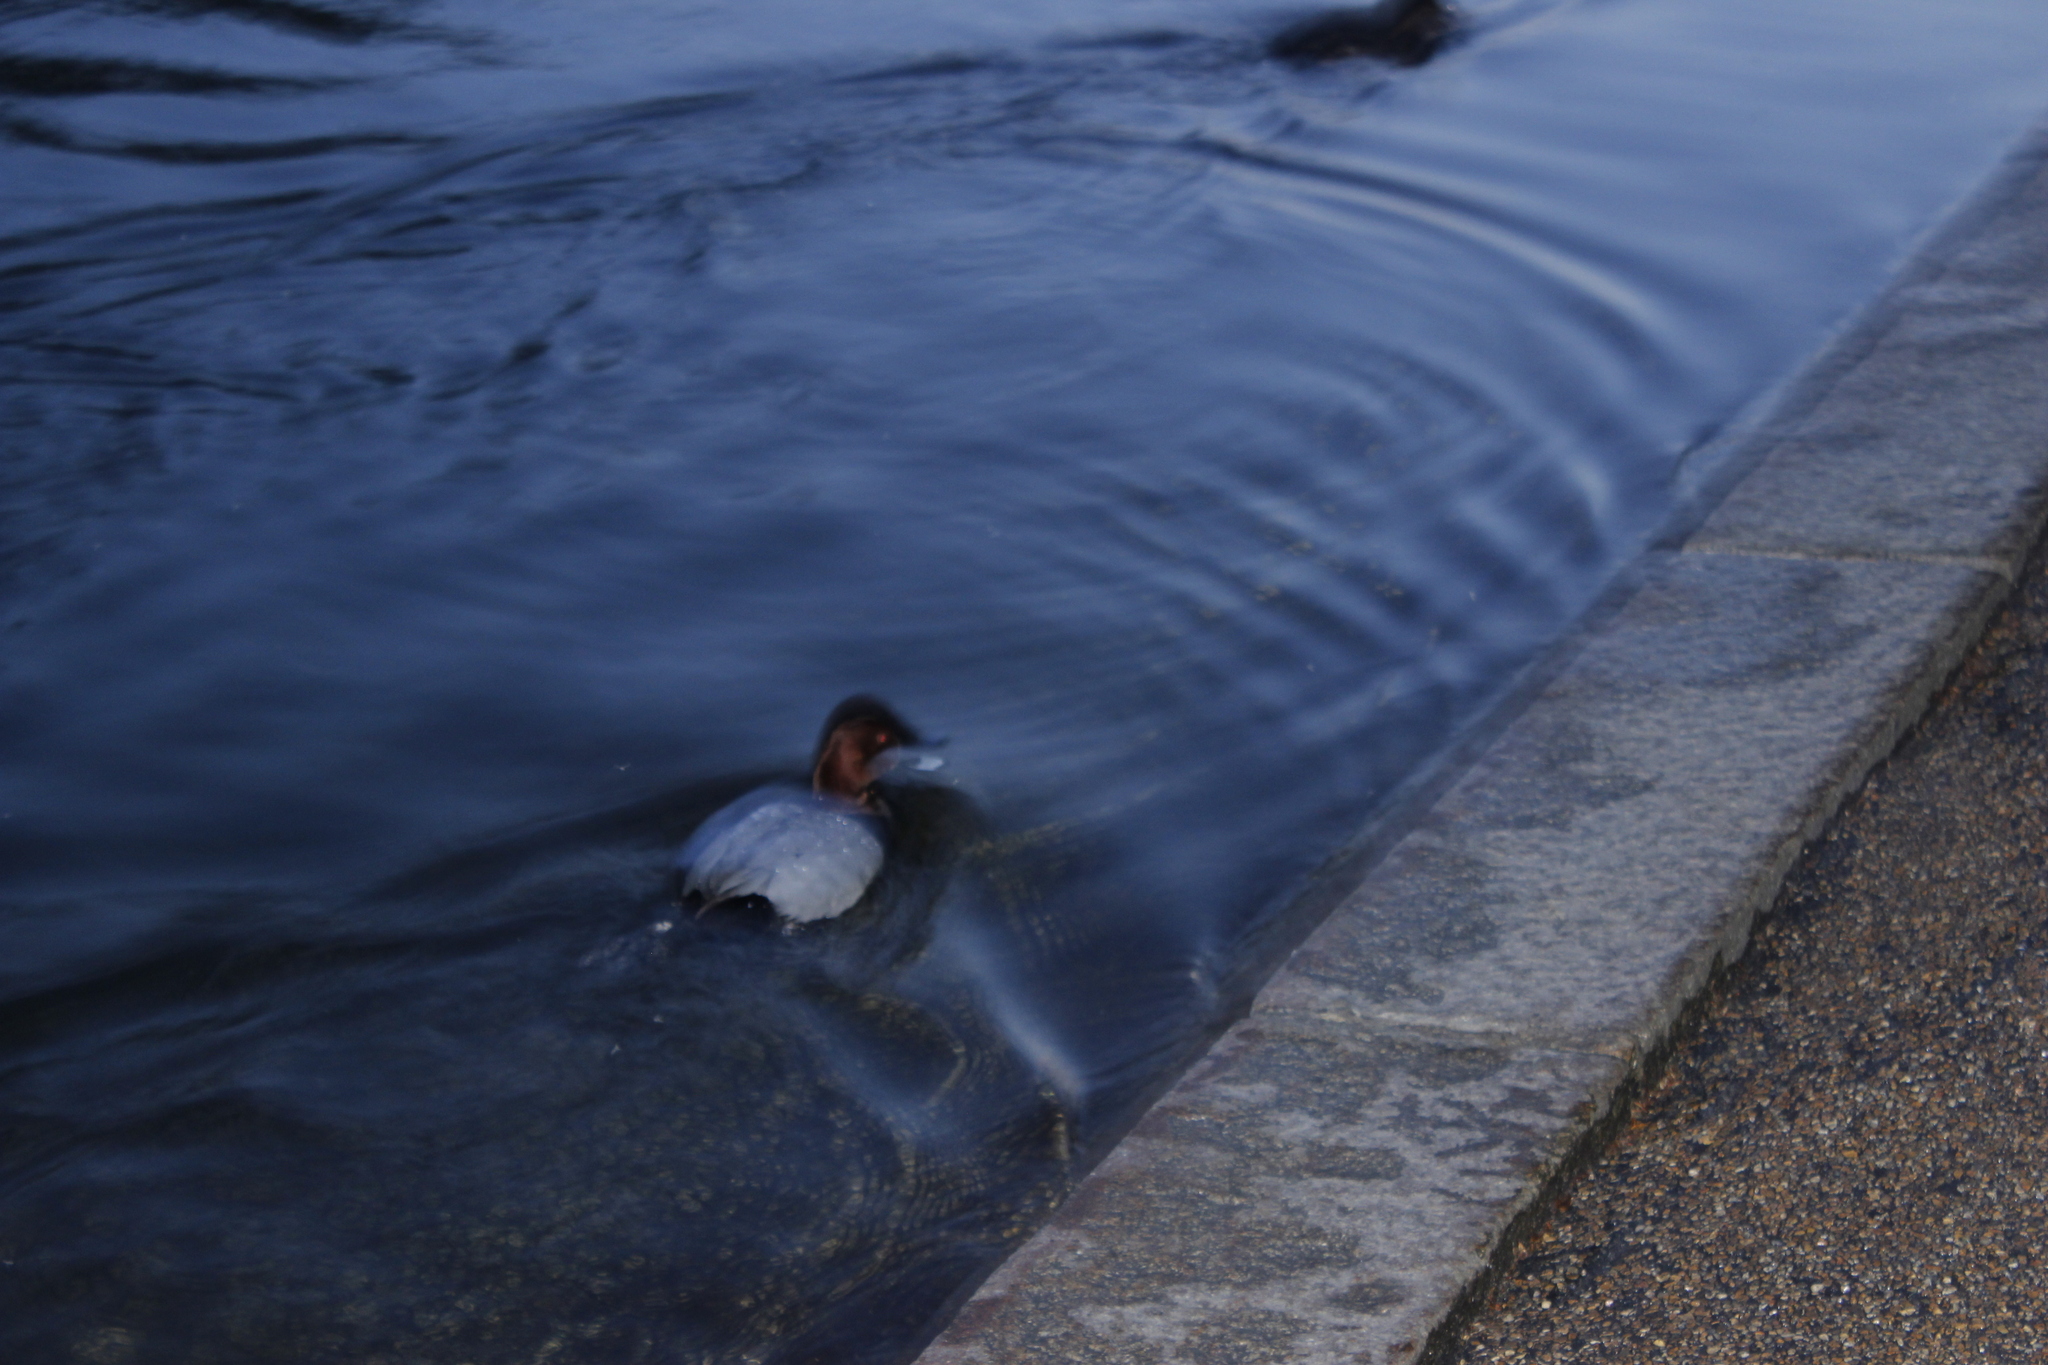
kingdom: Animalia
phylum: Chordata
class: Aves
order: Anseriformes
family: Anatidae
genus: Aythya
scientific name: Aythya ferina
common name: Common pochard
